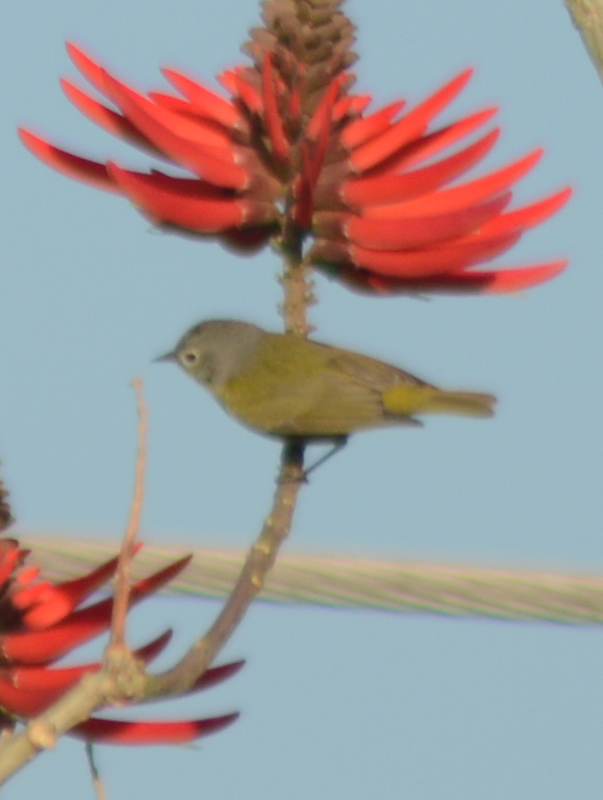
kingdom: Animalia
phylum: Chordata
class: Aves
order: Passeriformes
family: Parulidae
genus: Leiothlypis
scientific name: Leiothlypis ruficapilla
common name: Nashville warbler
